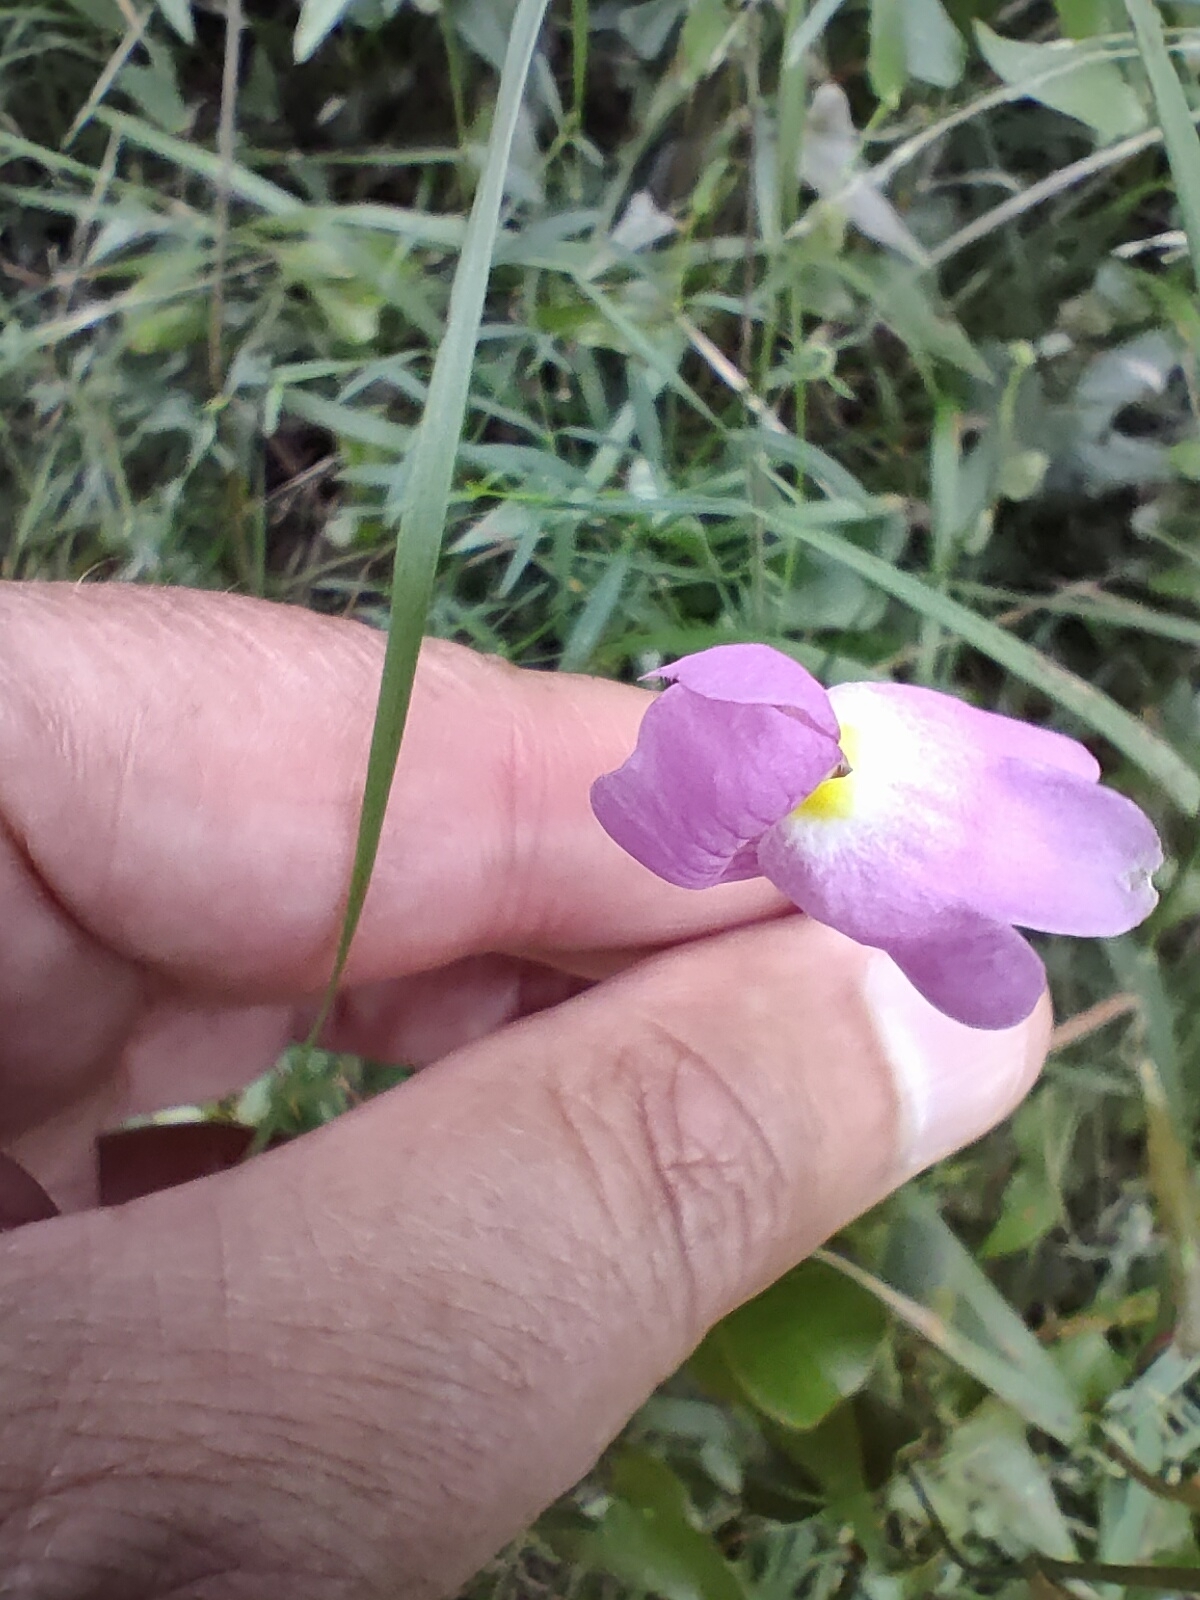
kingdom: Plantae
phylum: Tracheophyta
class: Magnoliopsida
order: Lamiales
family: Plantaginaceae
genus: Antirrhinum
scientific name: Antirrhinum litigiosum
